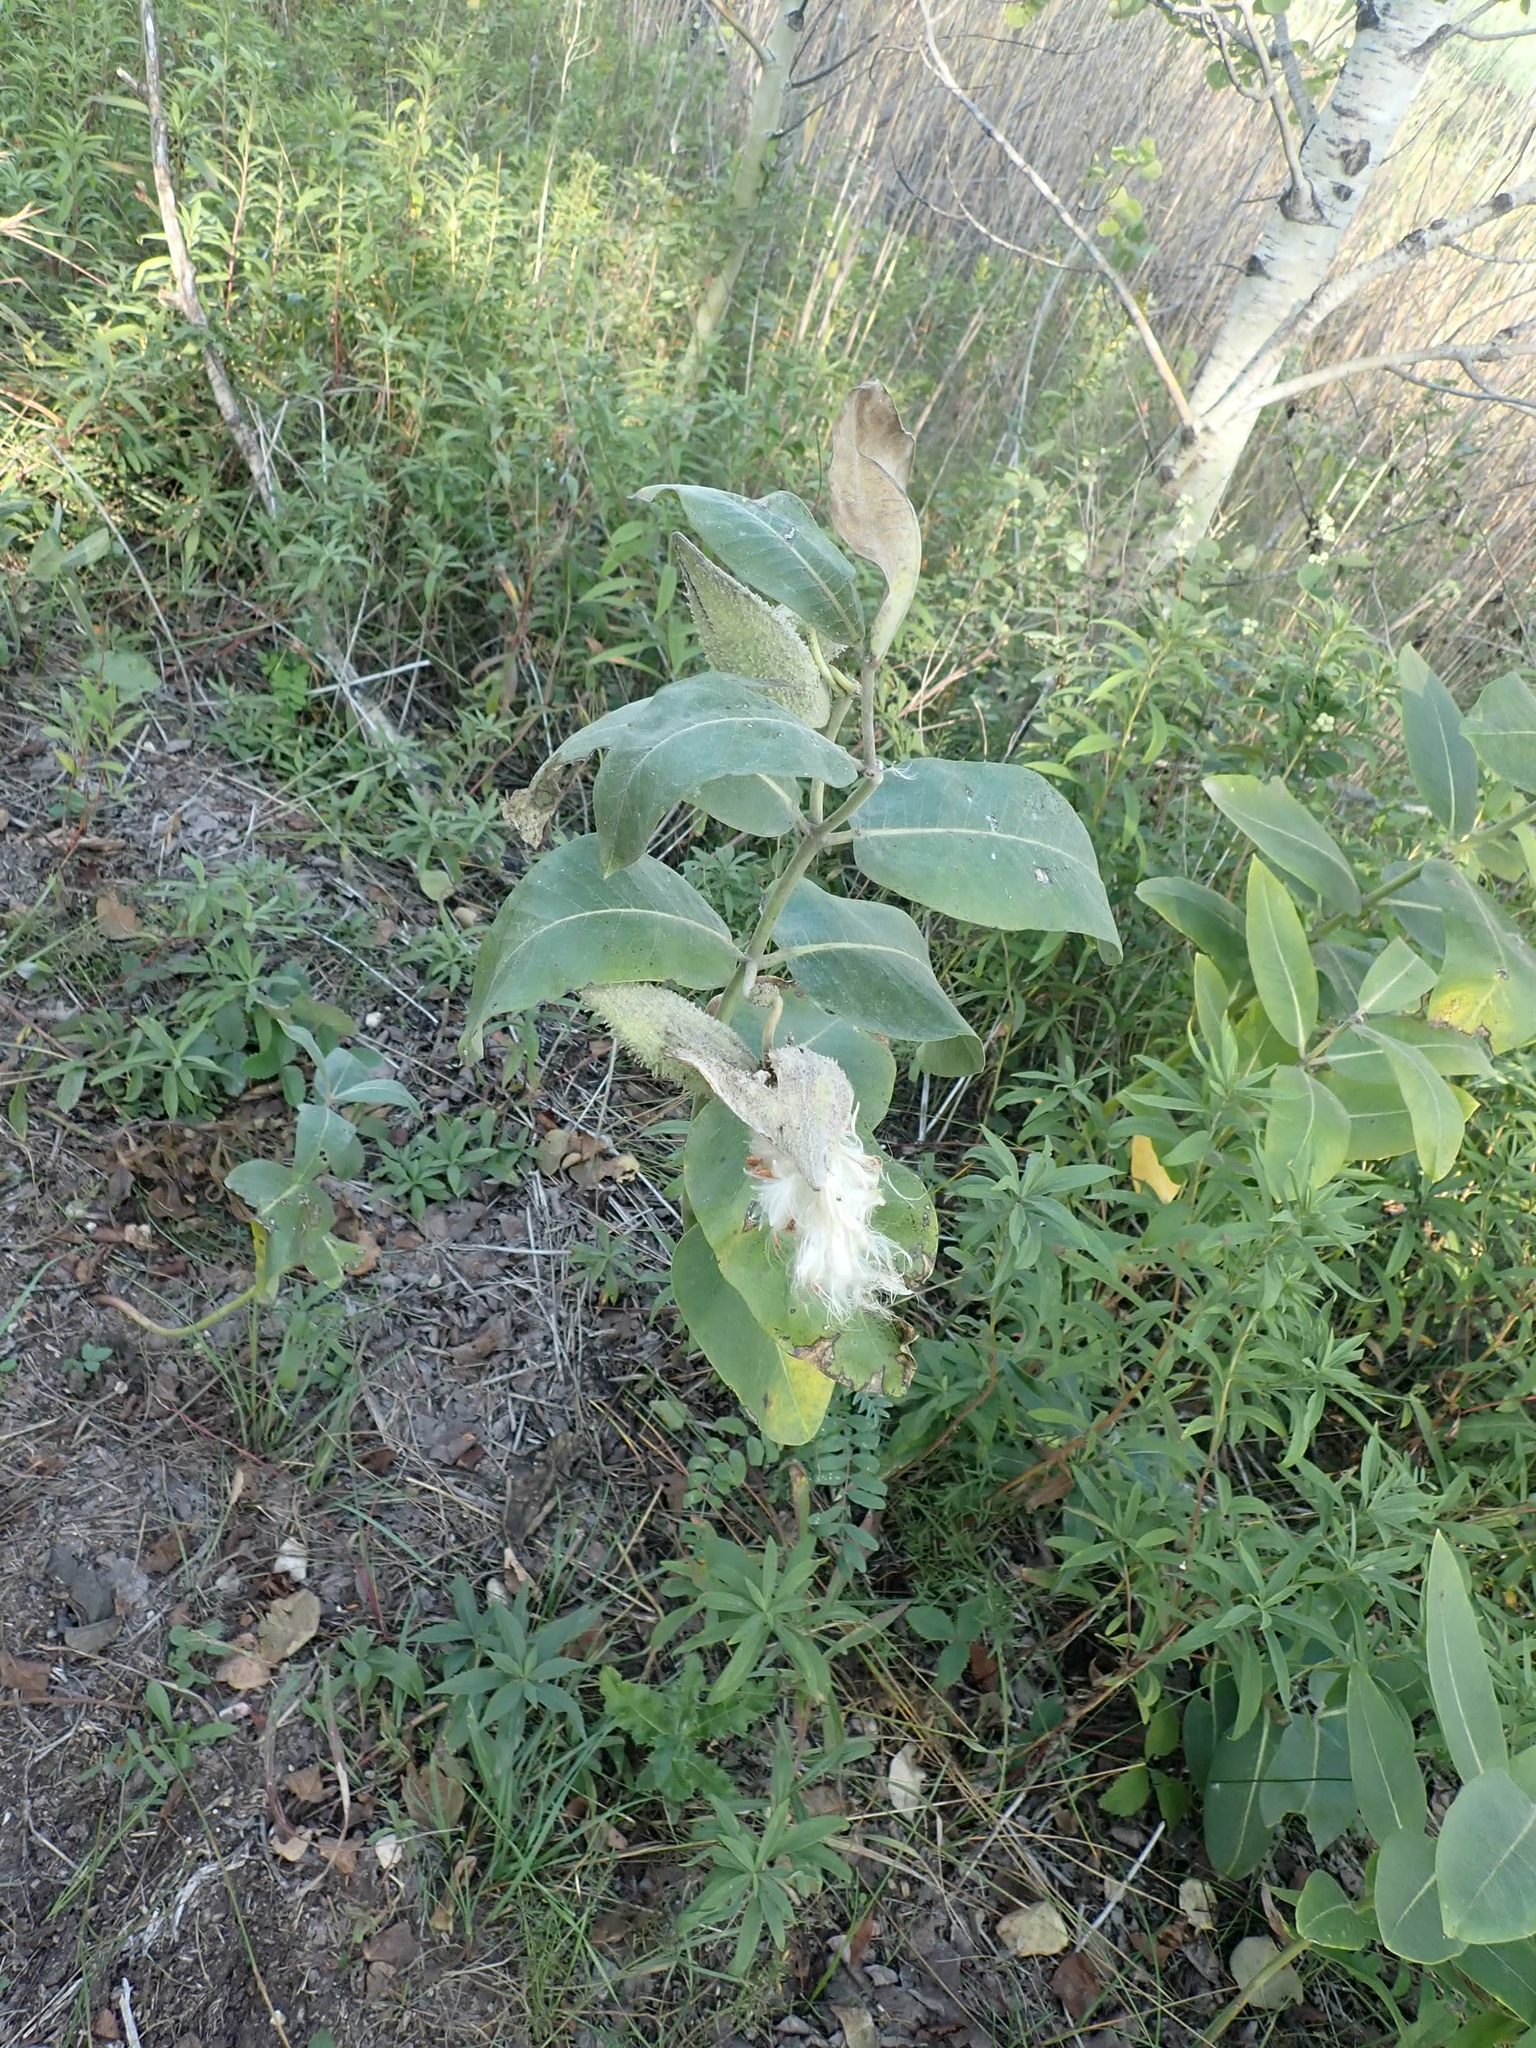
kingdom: Plantae
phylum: Tracheophyta
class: Magnoliopsida
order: Gentianales
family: Apocynaceae
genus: Asclepias
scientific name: Asclepias syriaca
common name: Common milkweed
